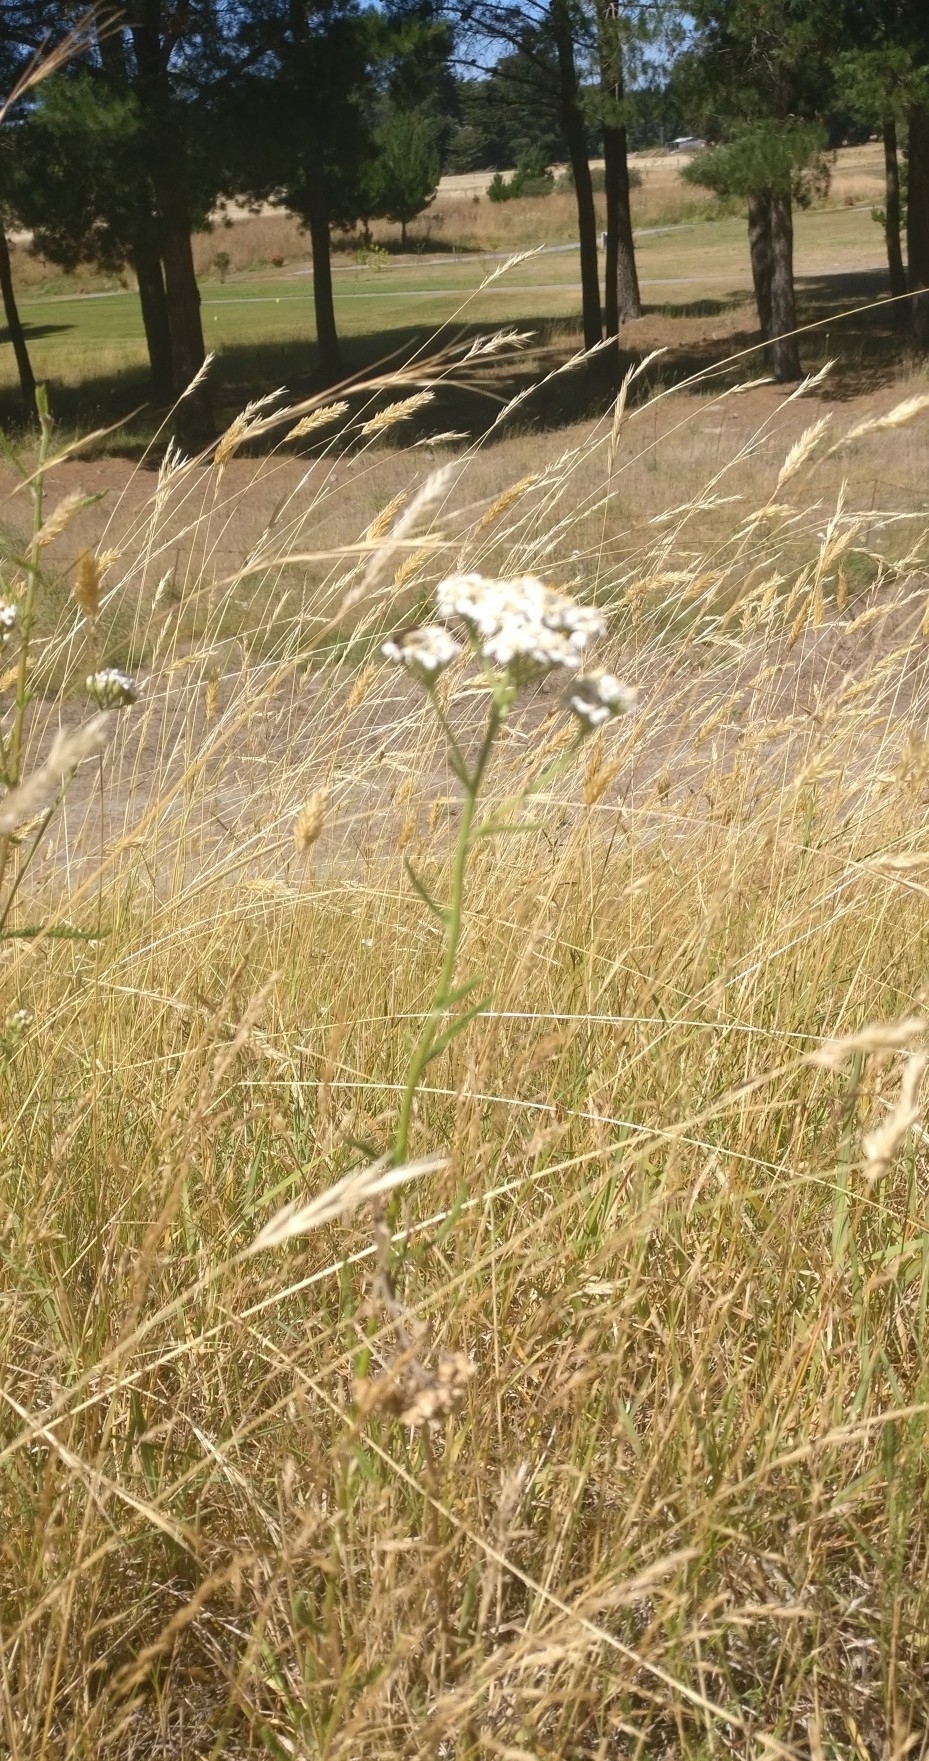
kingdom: Plantae
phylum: Tracheophyta
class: Magnoliopsida
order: Asterales
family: Asteraceae
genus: Achillea
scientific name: Achillea millefolium
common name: Yarrow
